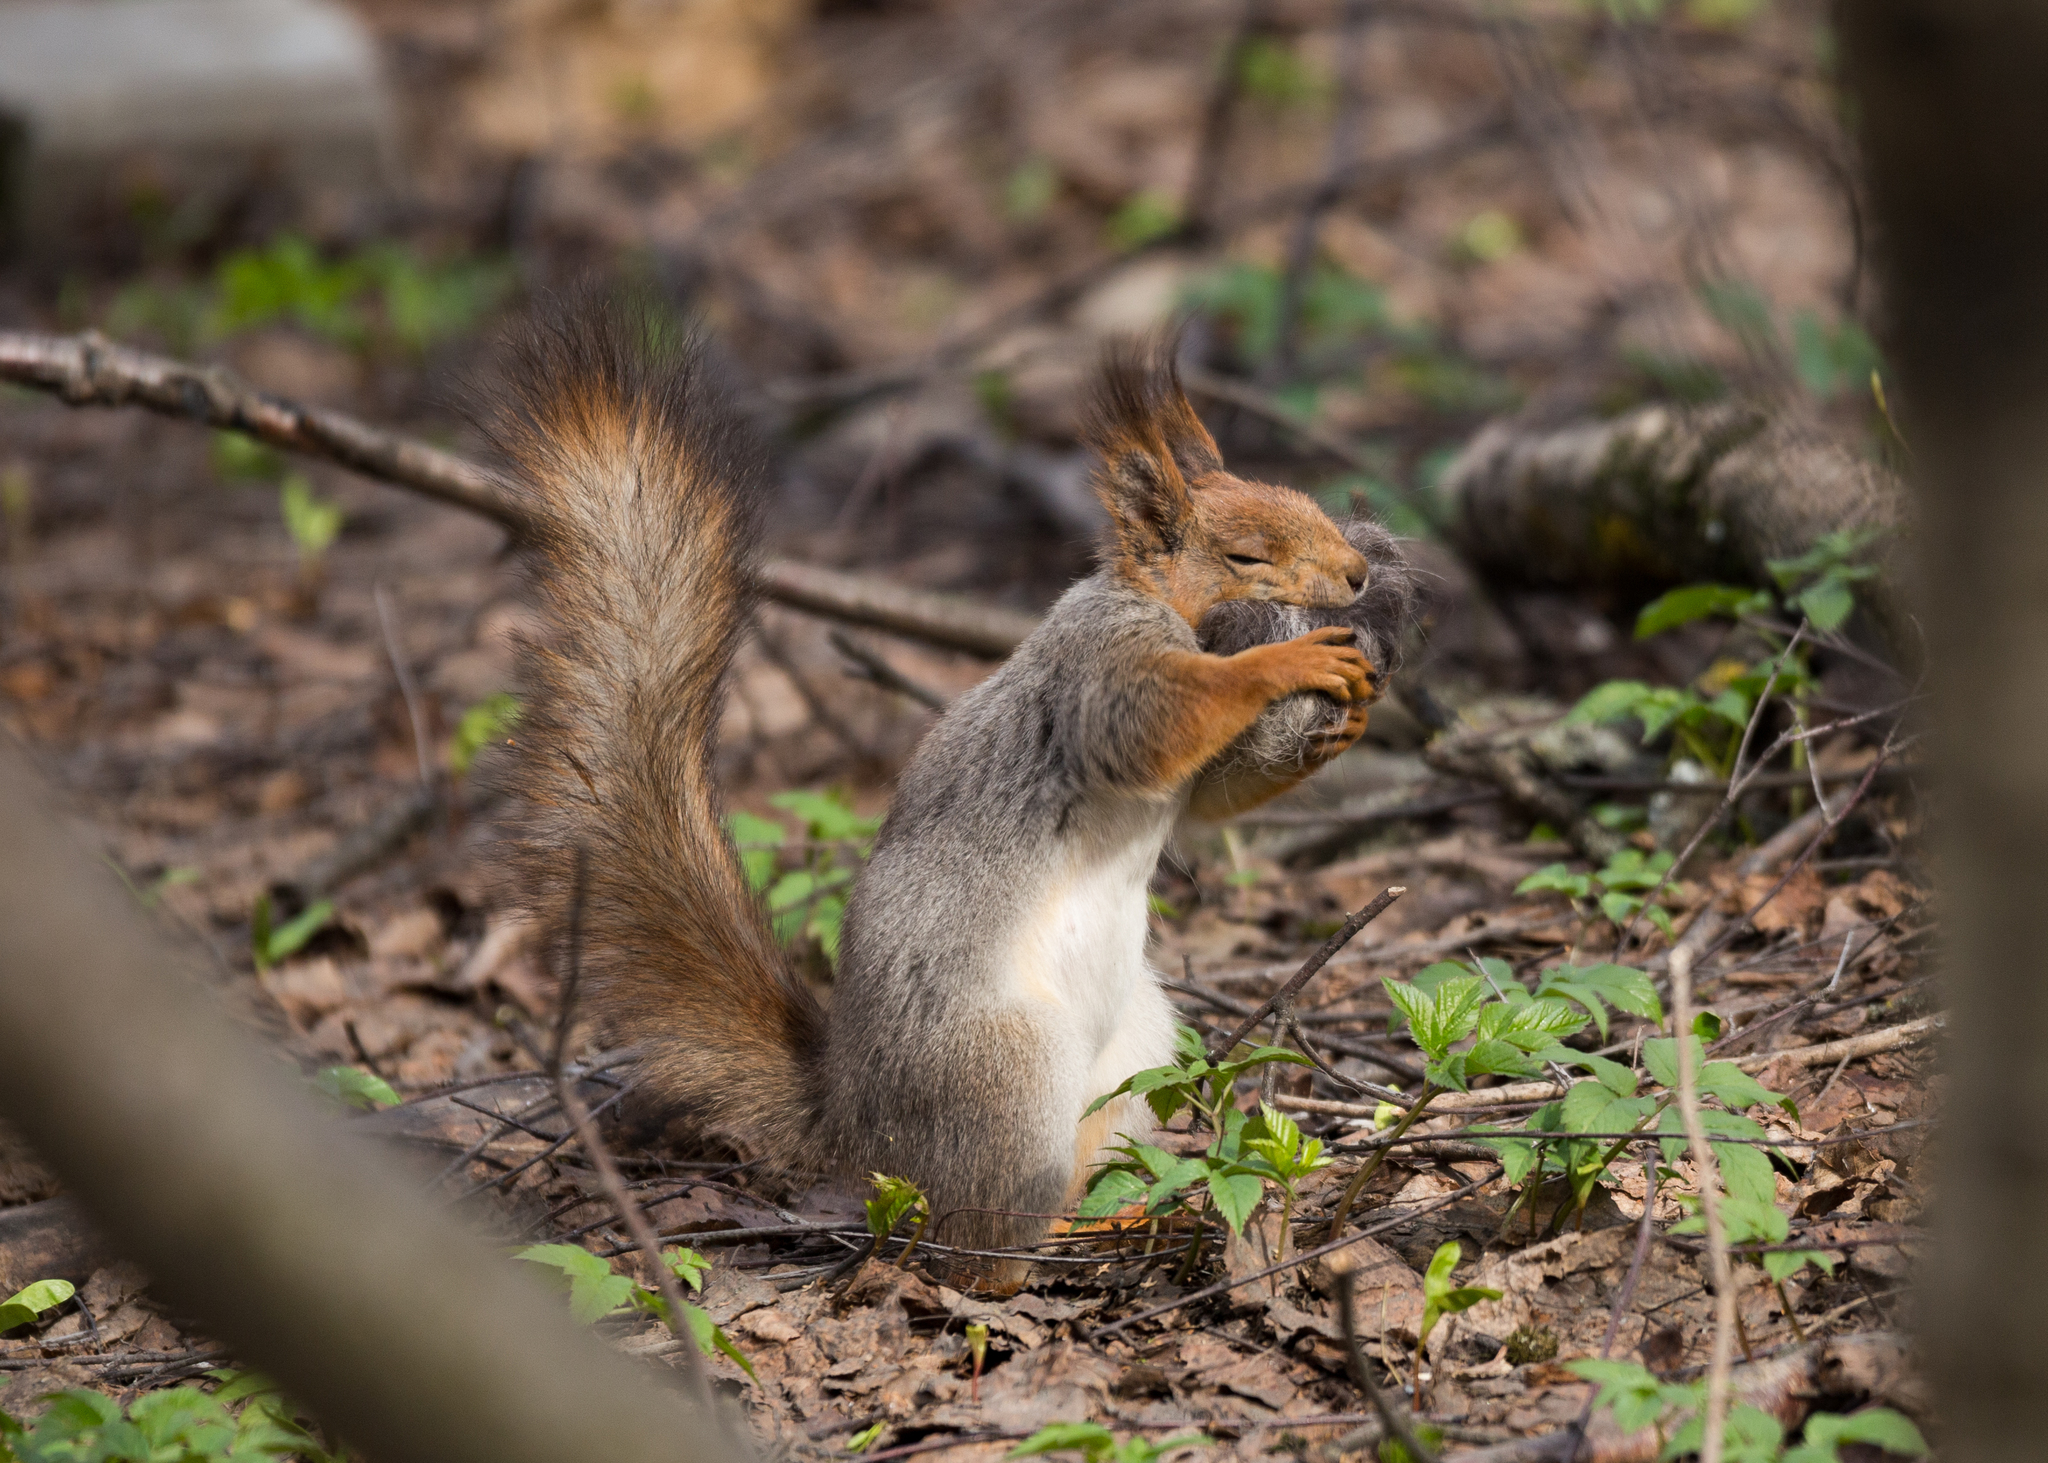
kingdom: Animalia
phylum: Chordata
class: Mammalia
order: Rodentia
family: Sciuridae
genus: Sciurus
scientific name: Sciurus vulgaris
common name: Eurasian red squirrel
